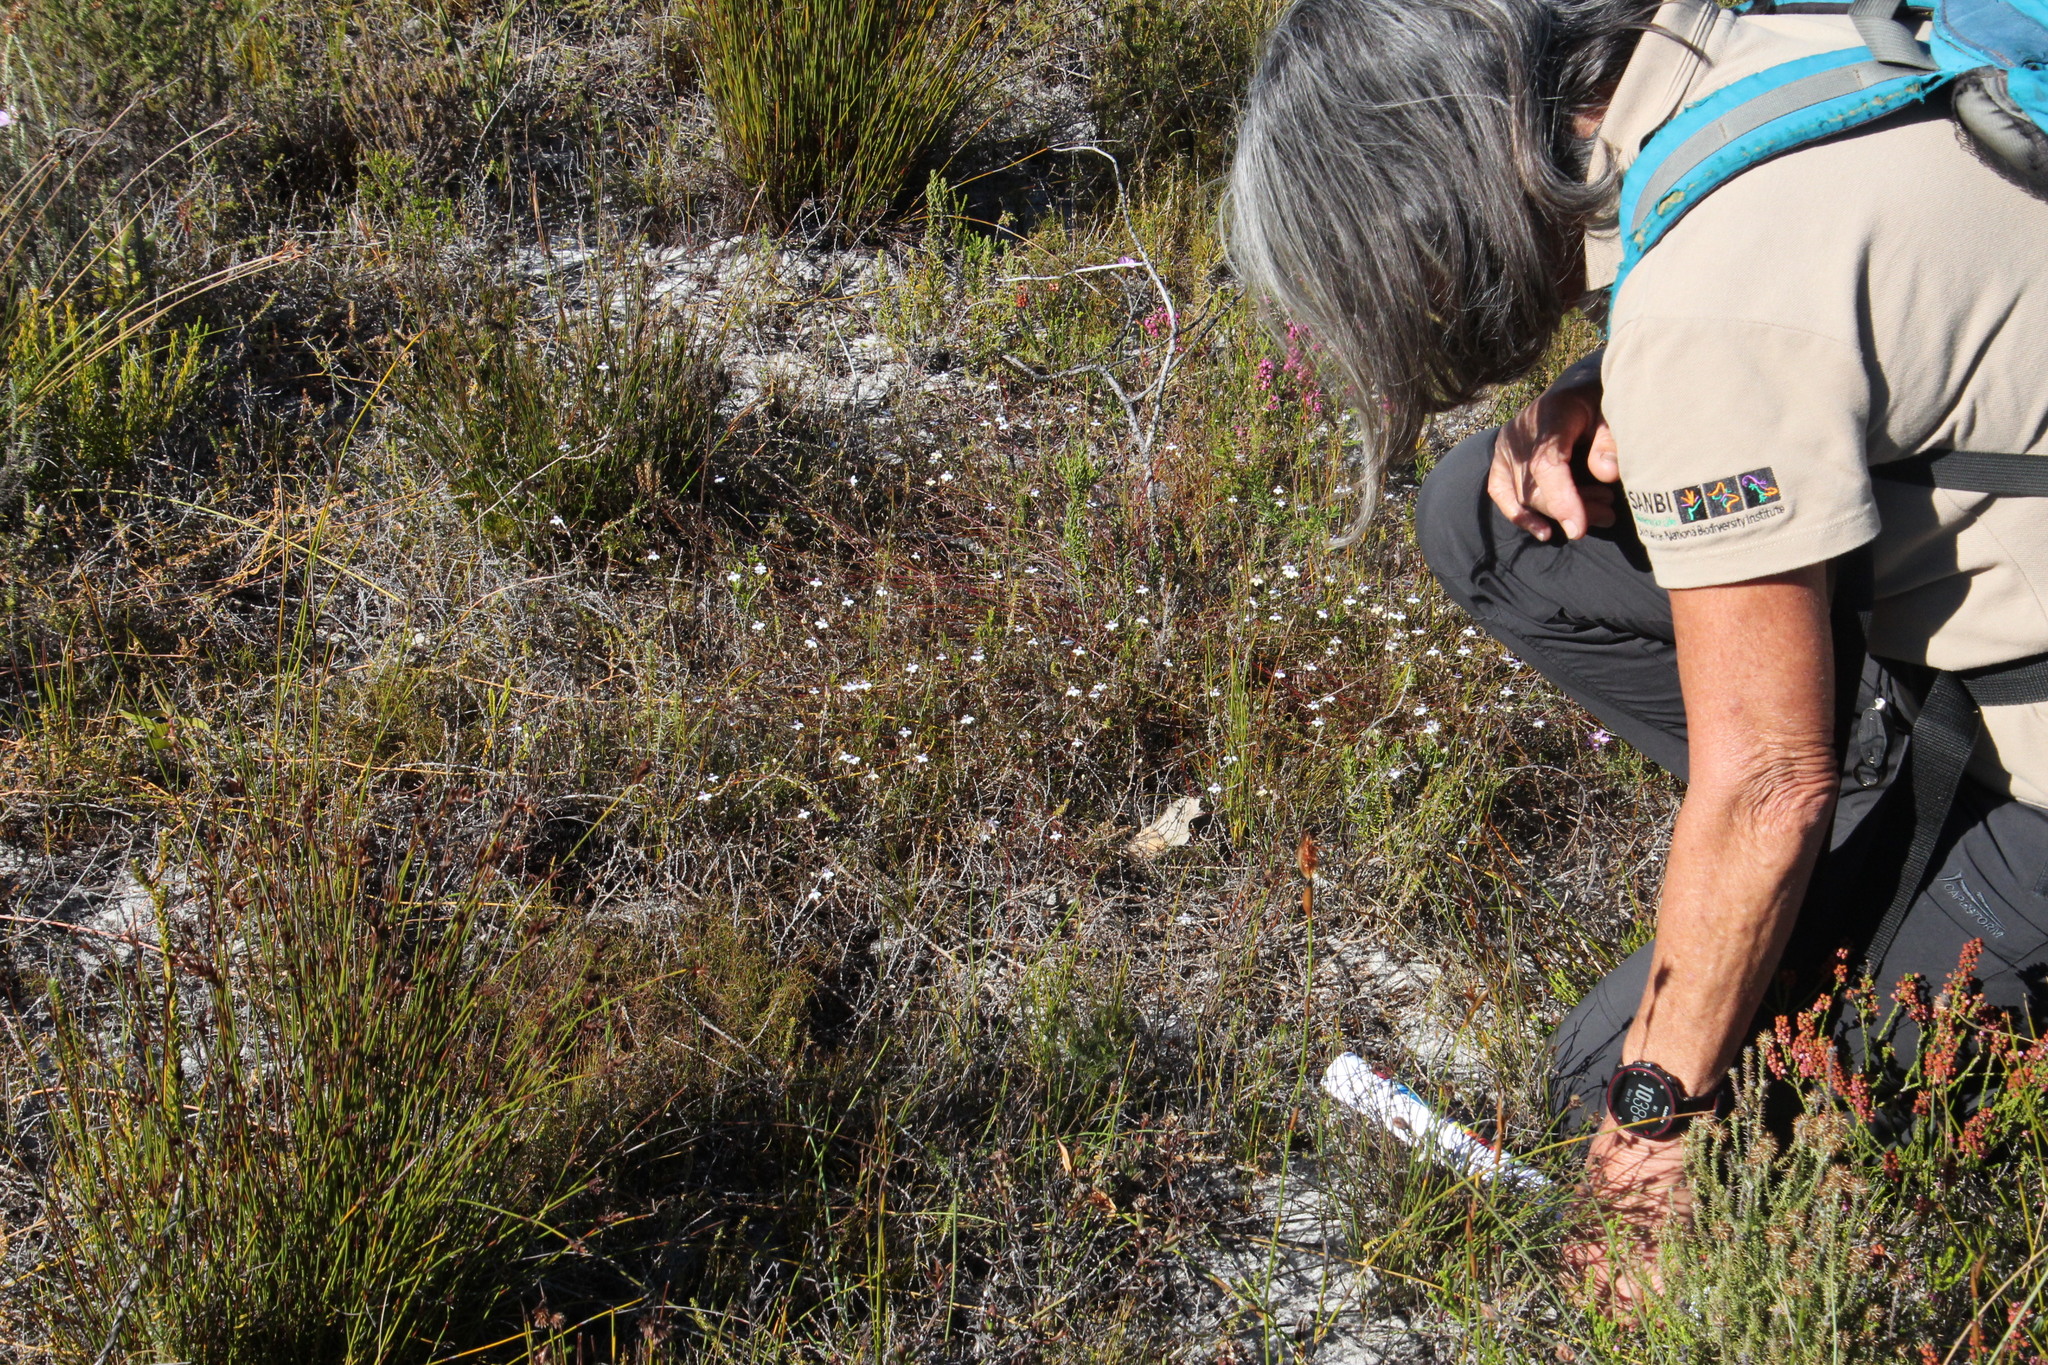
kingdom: Plantae
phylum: Tracheophyta
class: Magnoliopsida
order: Asterales
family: Campanulaceae
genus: Lobelia
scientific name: Lobelia setacea
